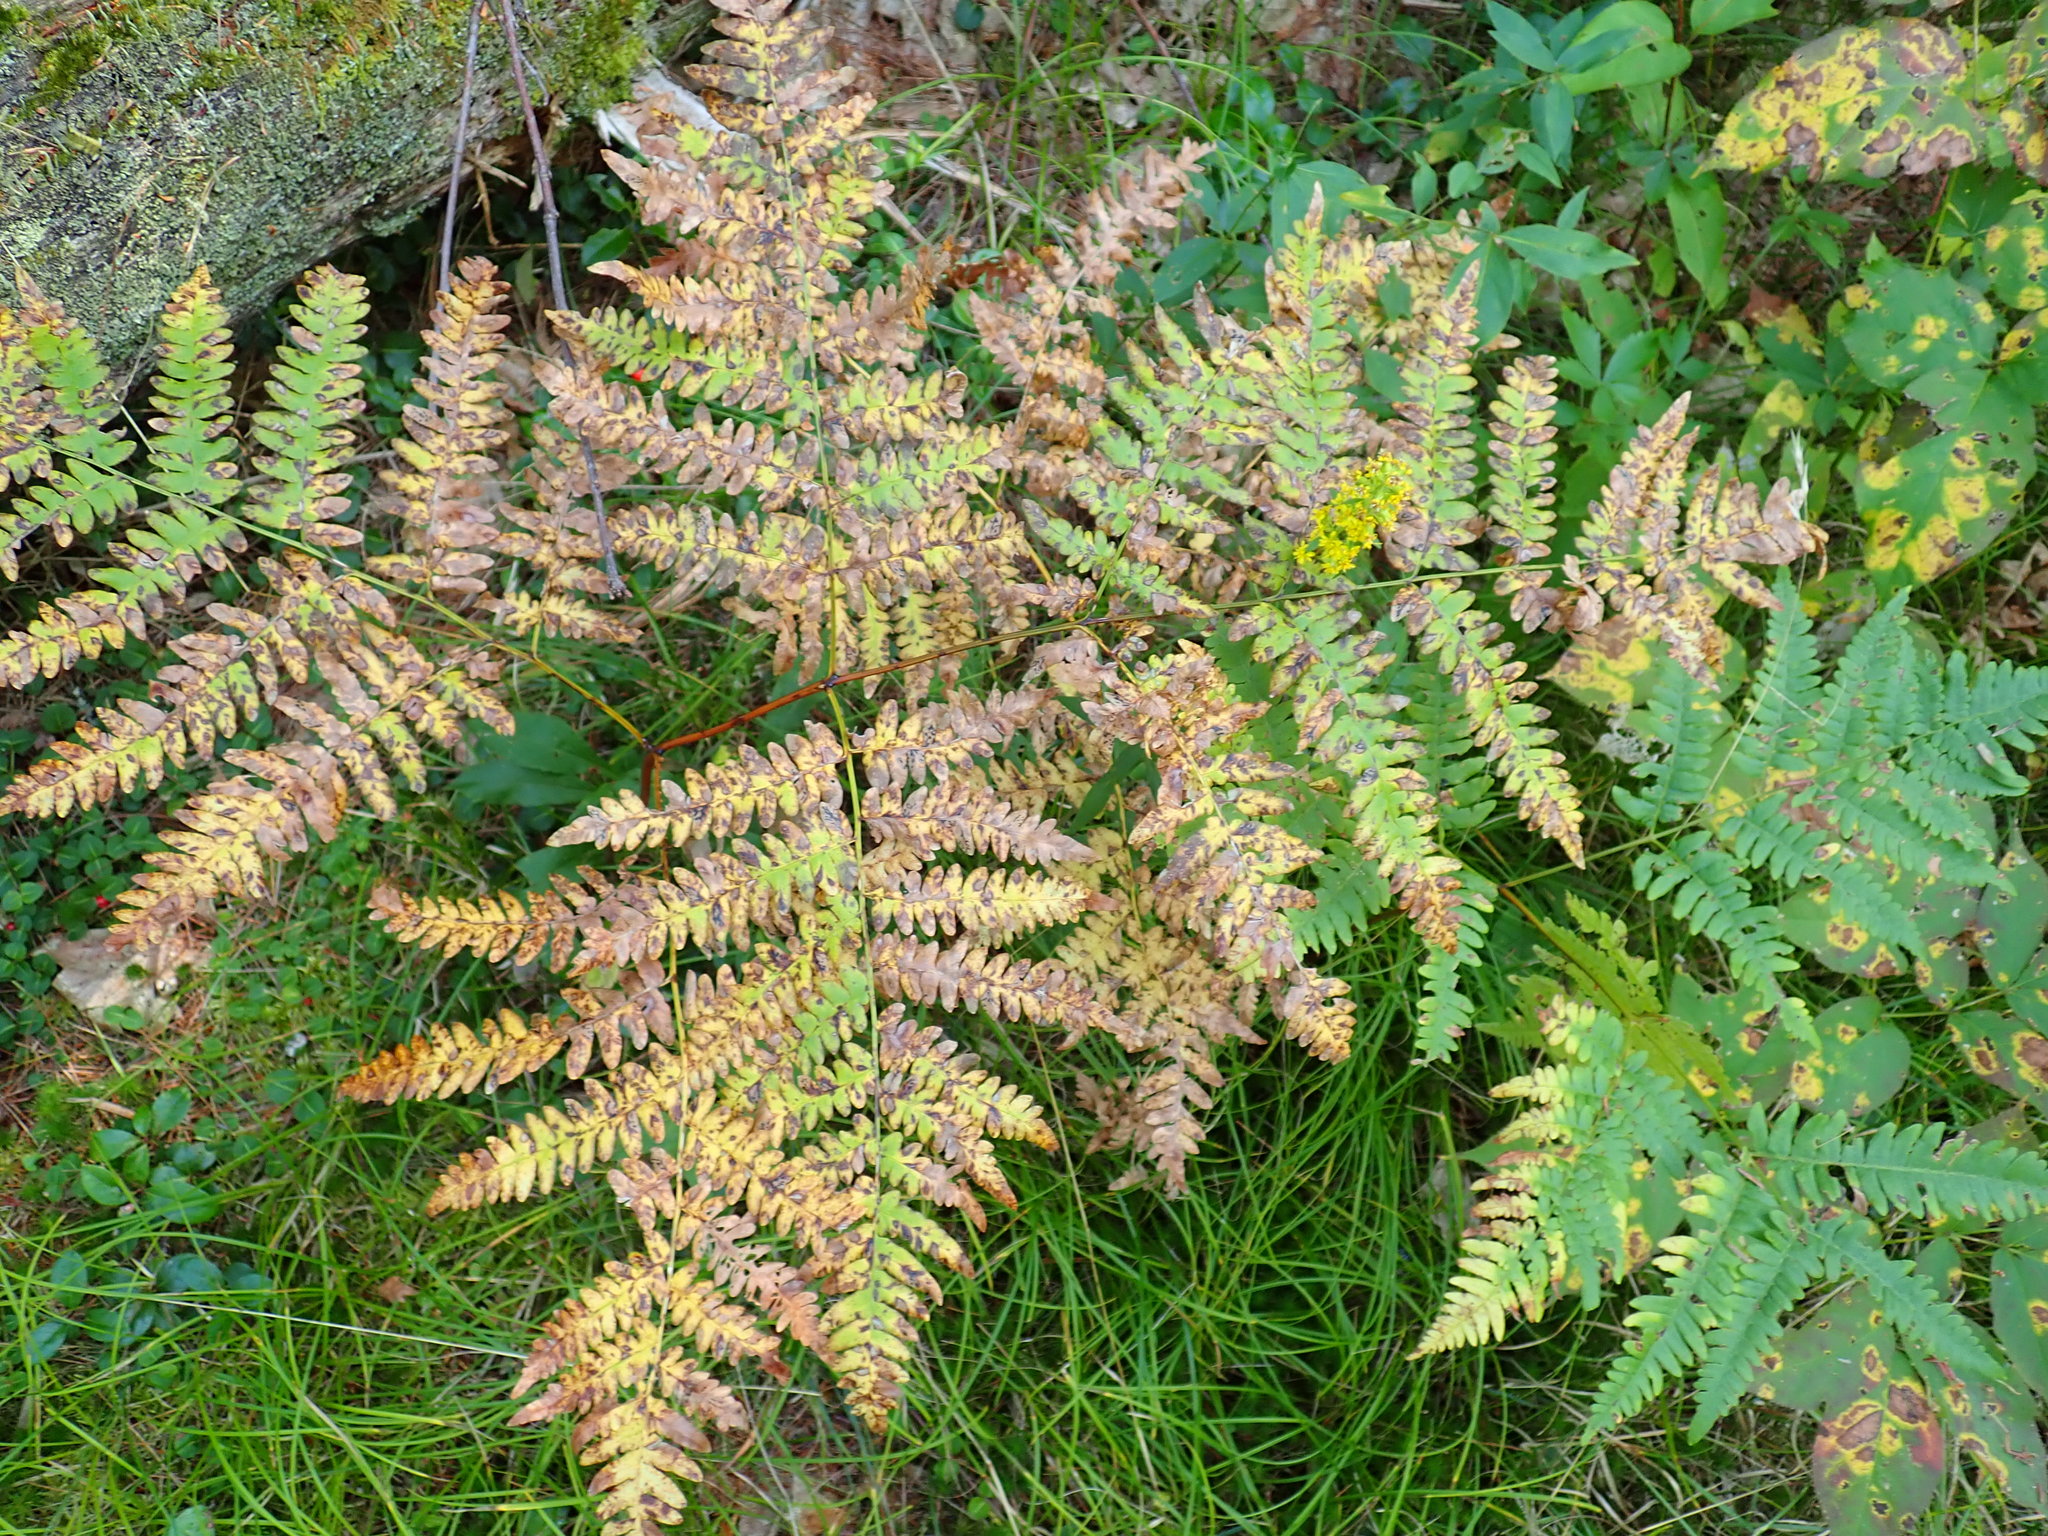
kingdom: Plantae
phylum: Tracheophyta
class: Polypodiopsida
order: Polypodiales
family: Dennstaedtiaceae
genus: Pteridium
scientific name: Pteridium aquilinum
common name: Bracken
